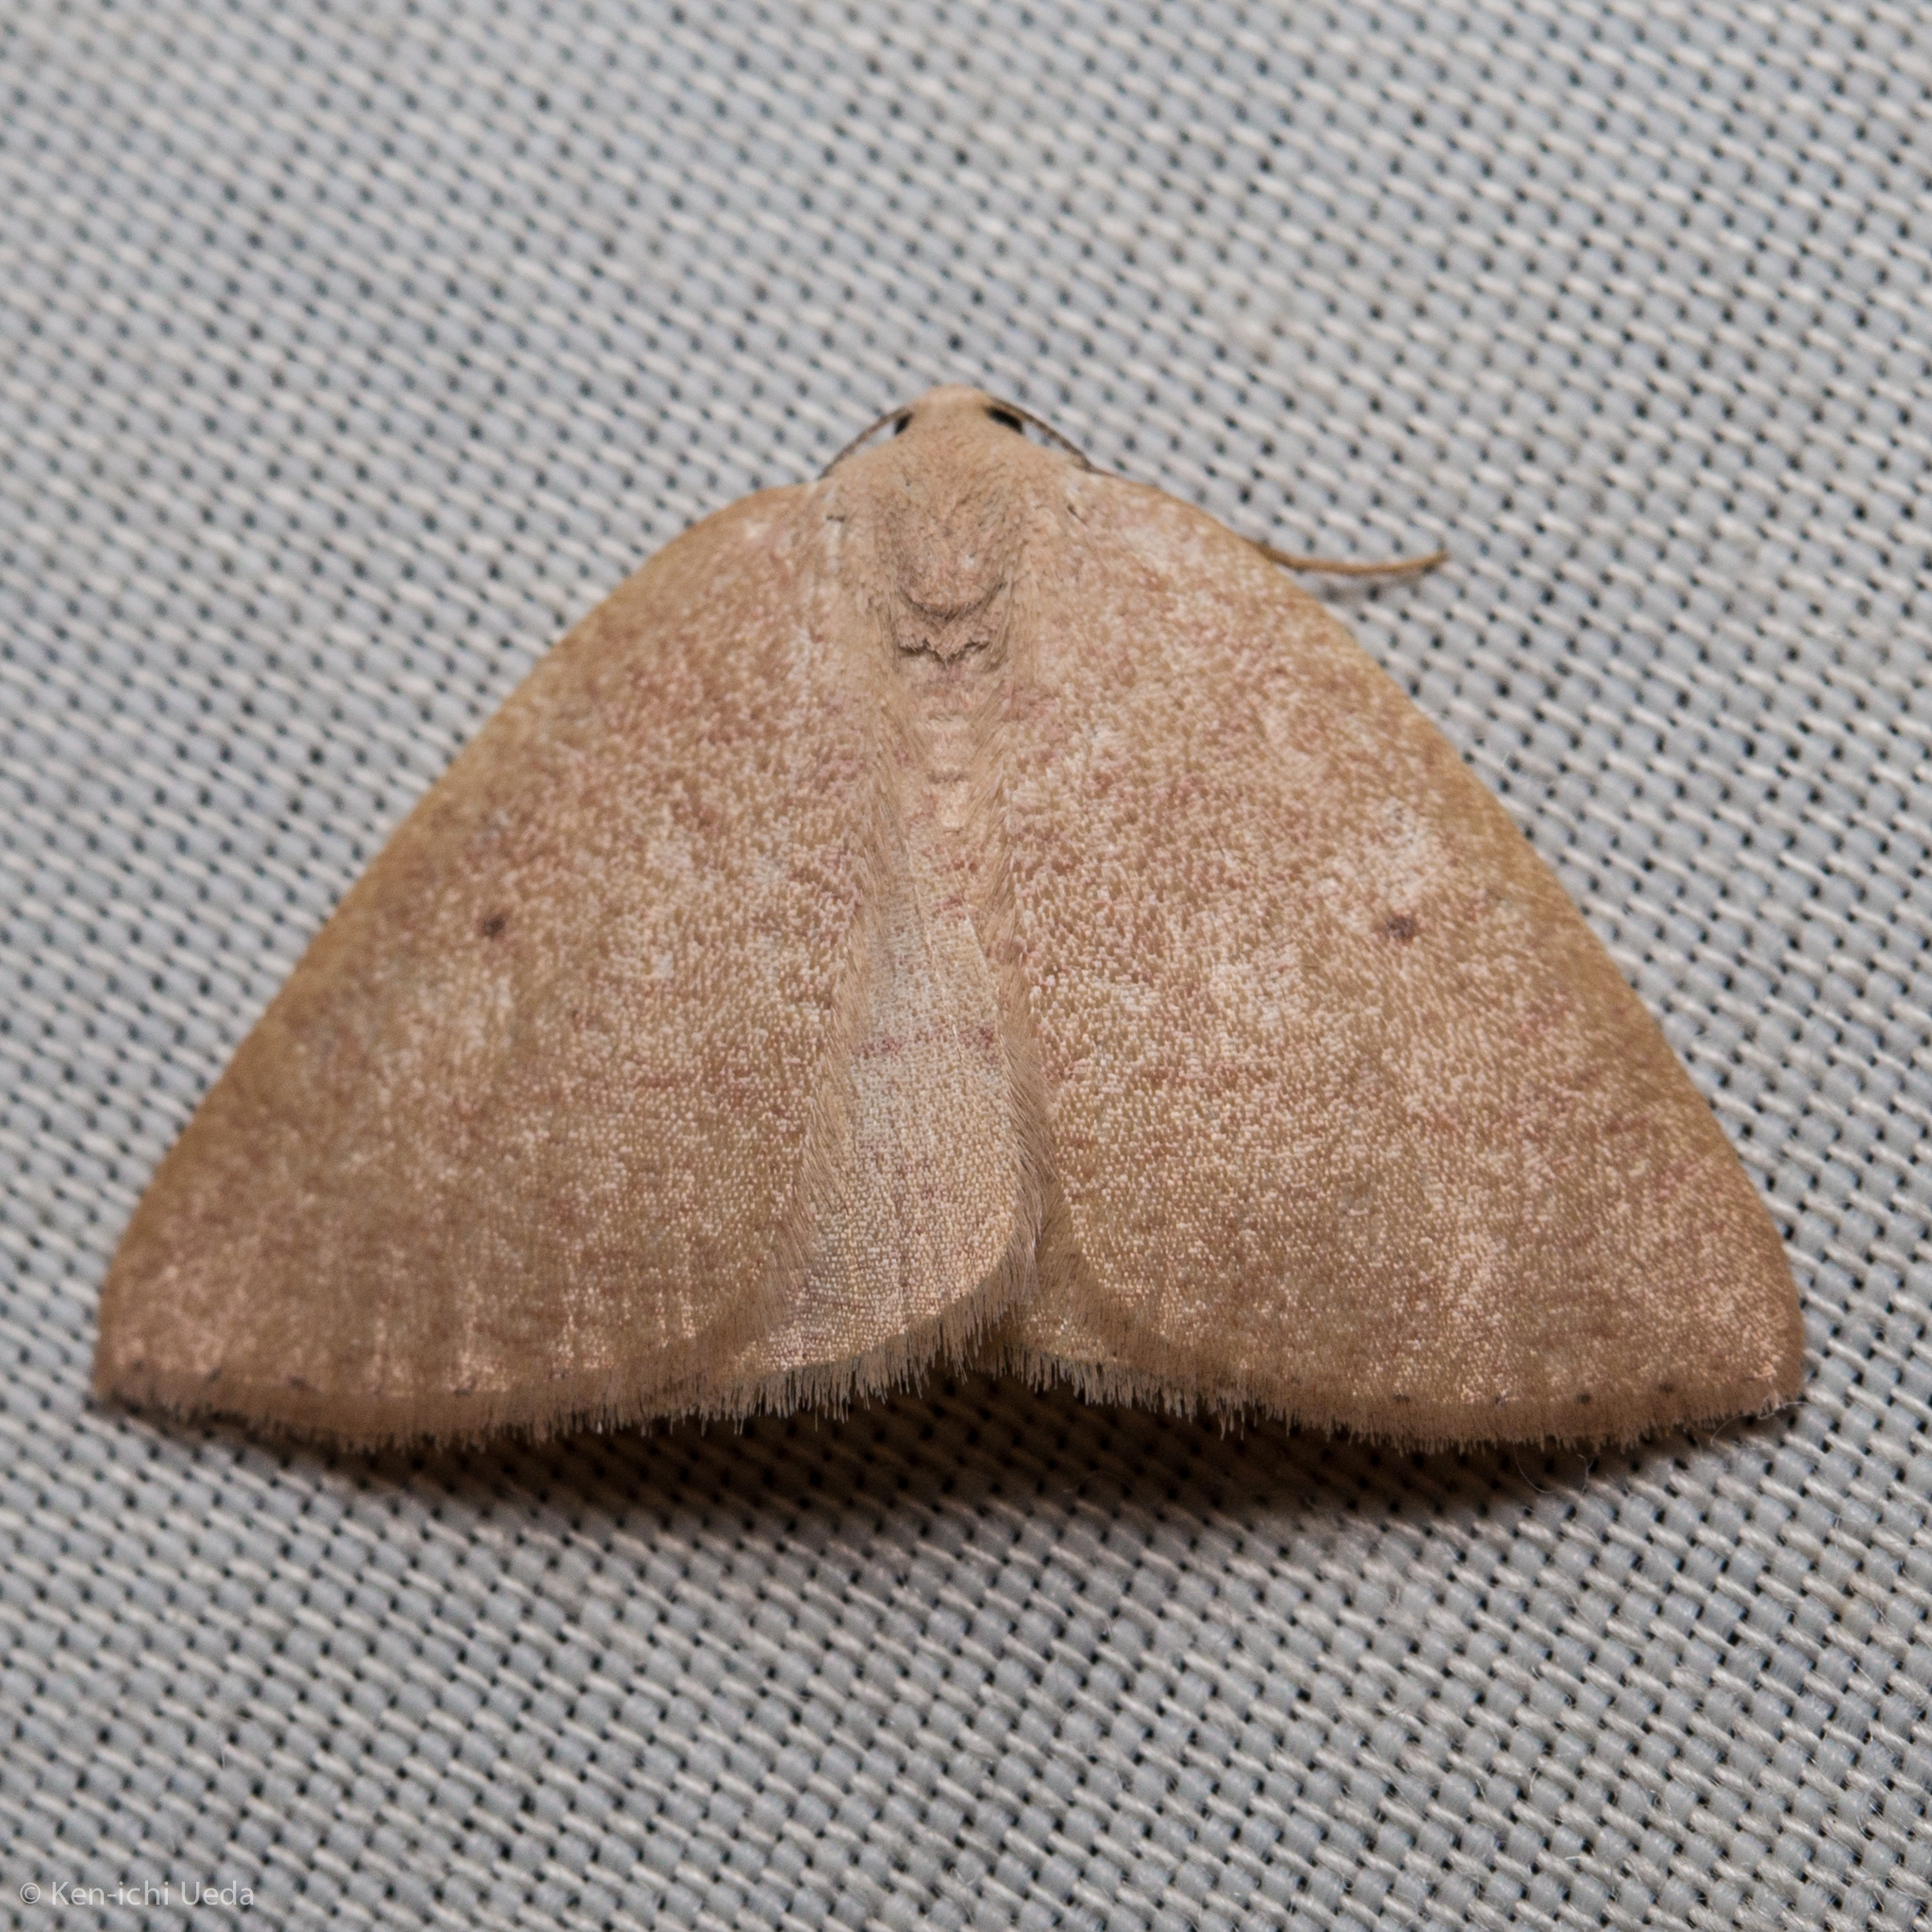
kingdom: Animalia
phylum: Arthropoda
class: Insecta
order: Lepidoptera
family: Geometridae
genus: Eudrepanulatrix
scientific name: Eudrepanulatrix rectifascia
